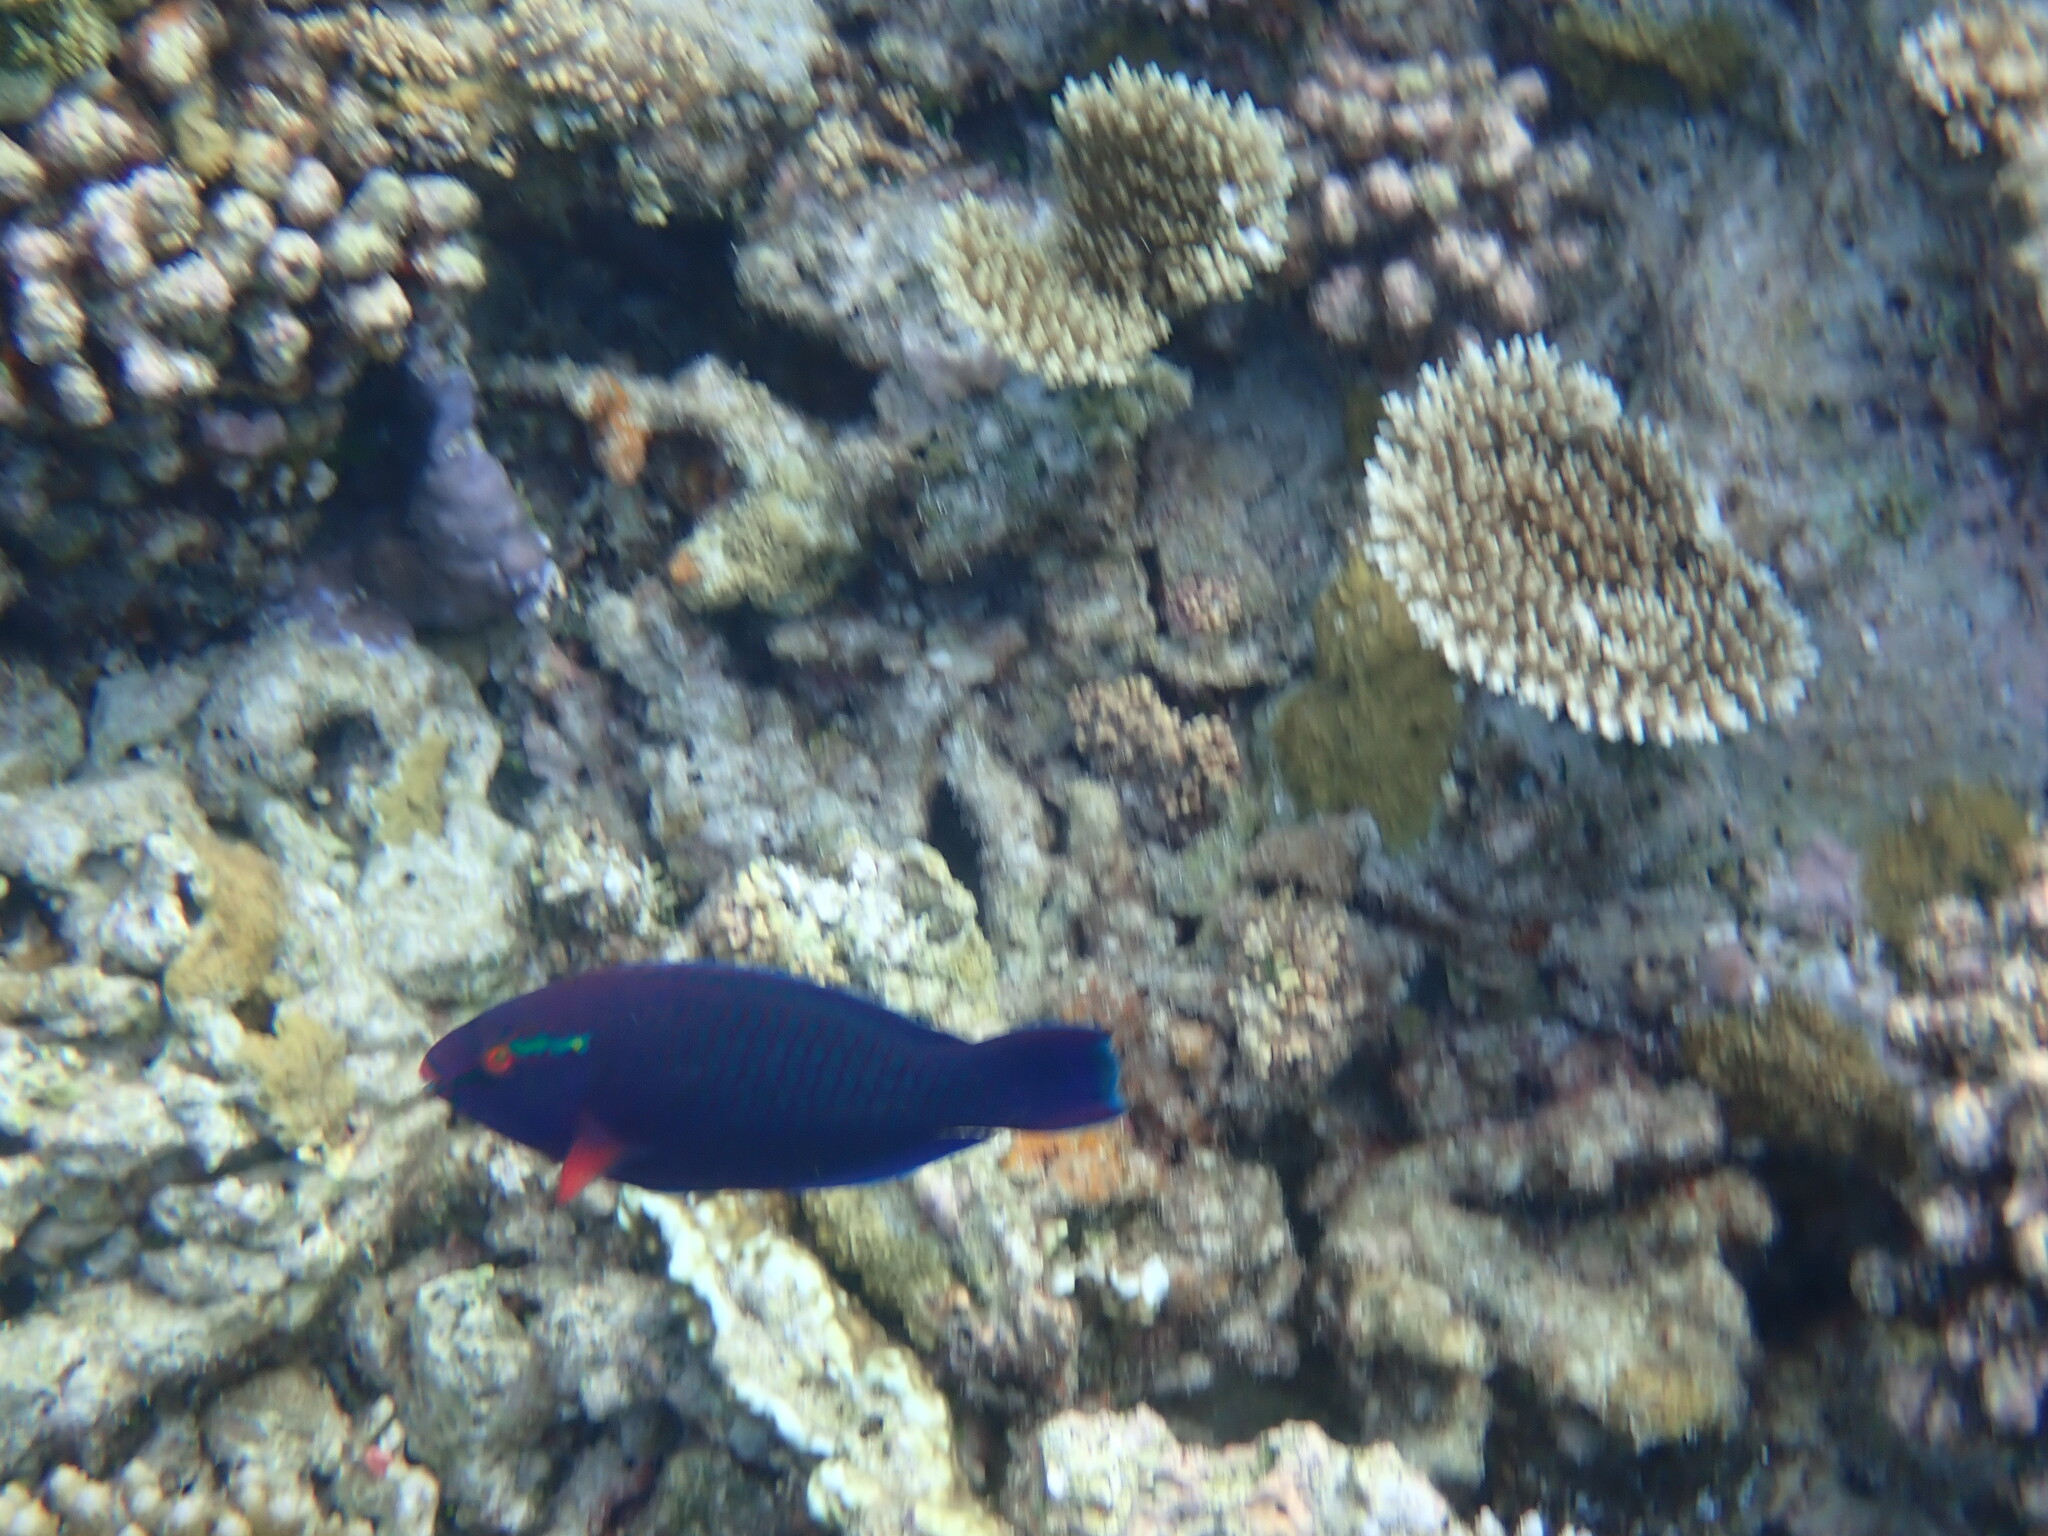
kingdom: Animalia
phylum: Chordata
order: Perciformes
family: Scaridae
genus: Scarus
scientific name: Scarus niger
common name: Dusky parrotfish
